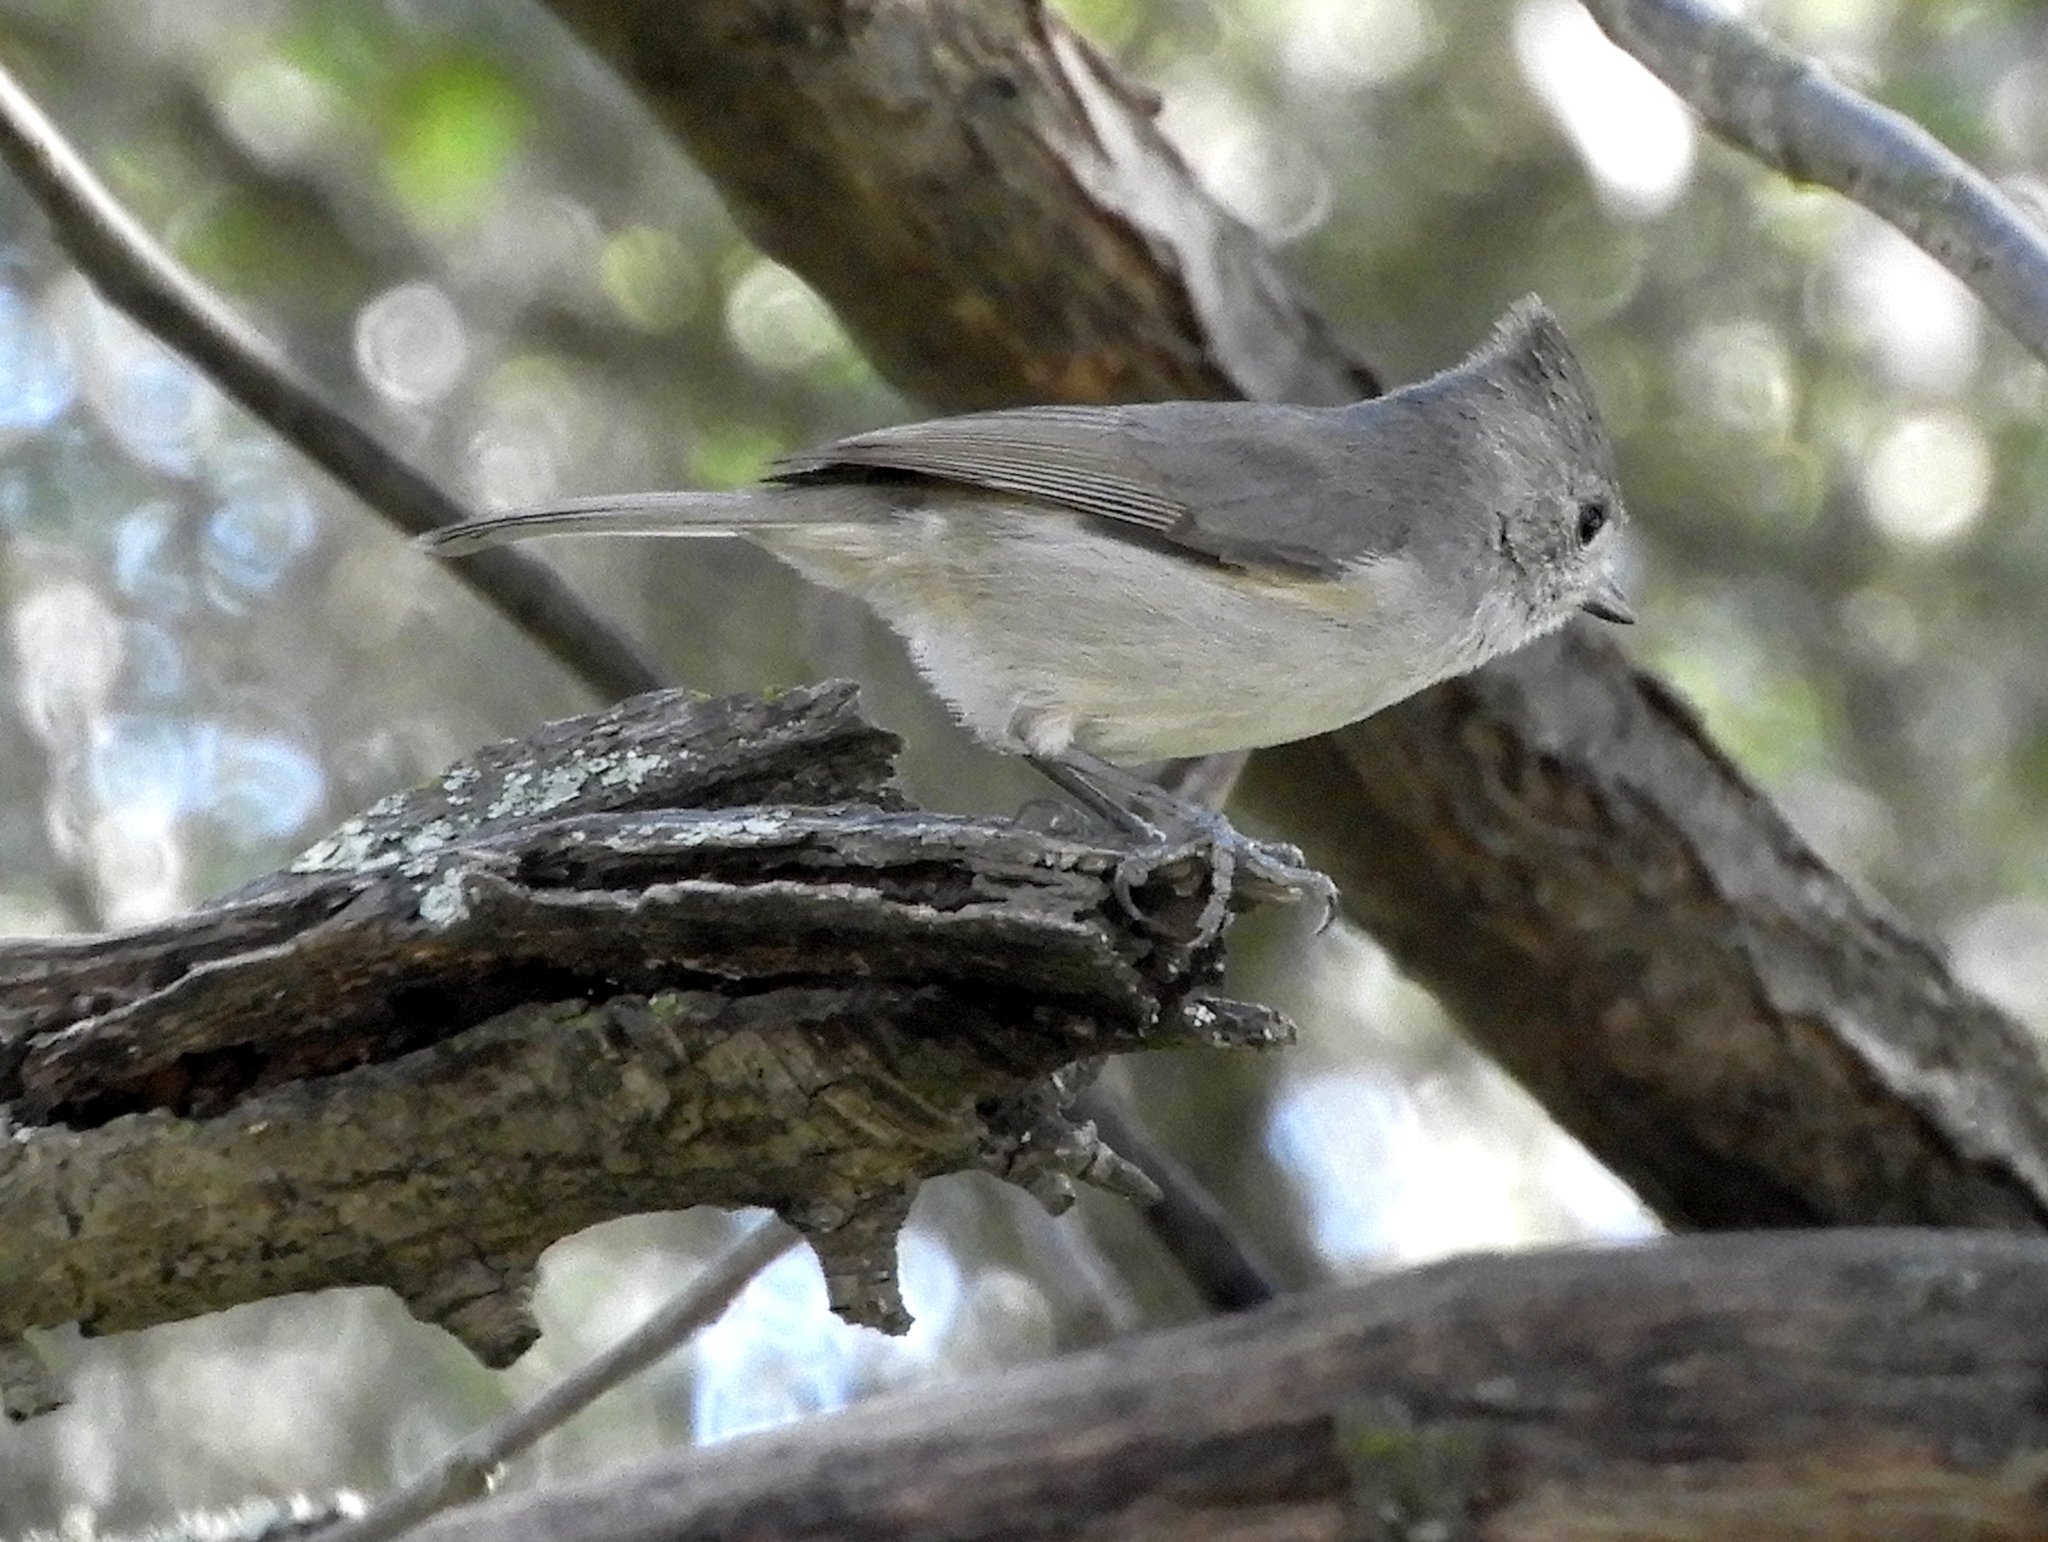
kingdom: Animalia
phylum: Chordata
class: Aves
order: Passeriformes
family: Paridae
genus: Baeolophus
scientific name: Baeolophus inornatus
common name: Oak titmouse
